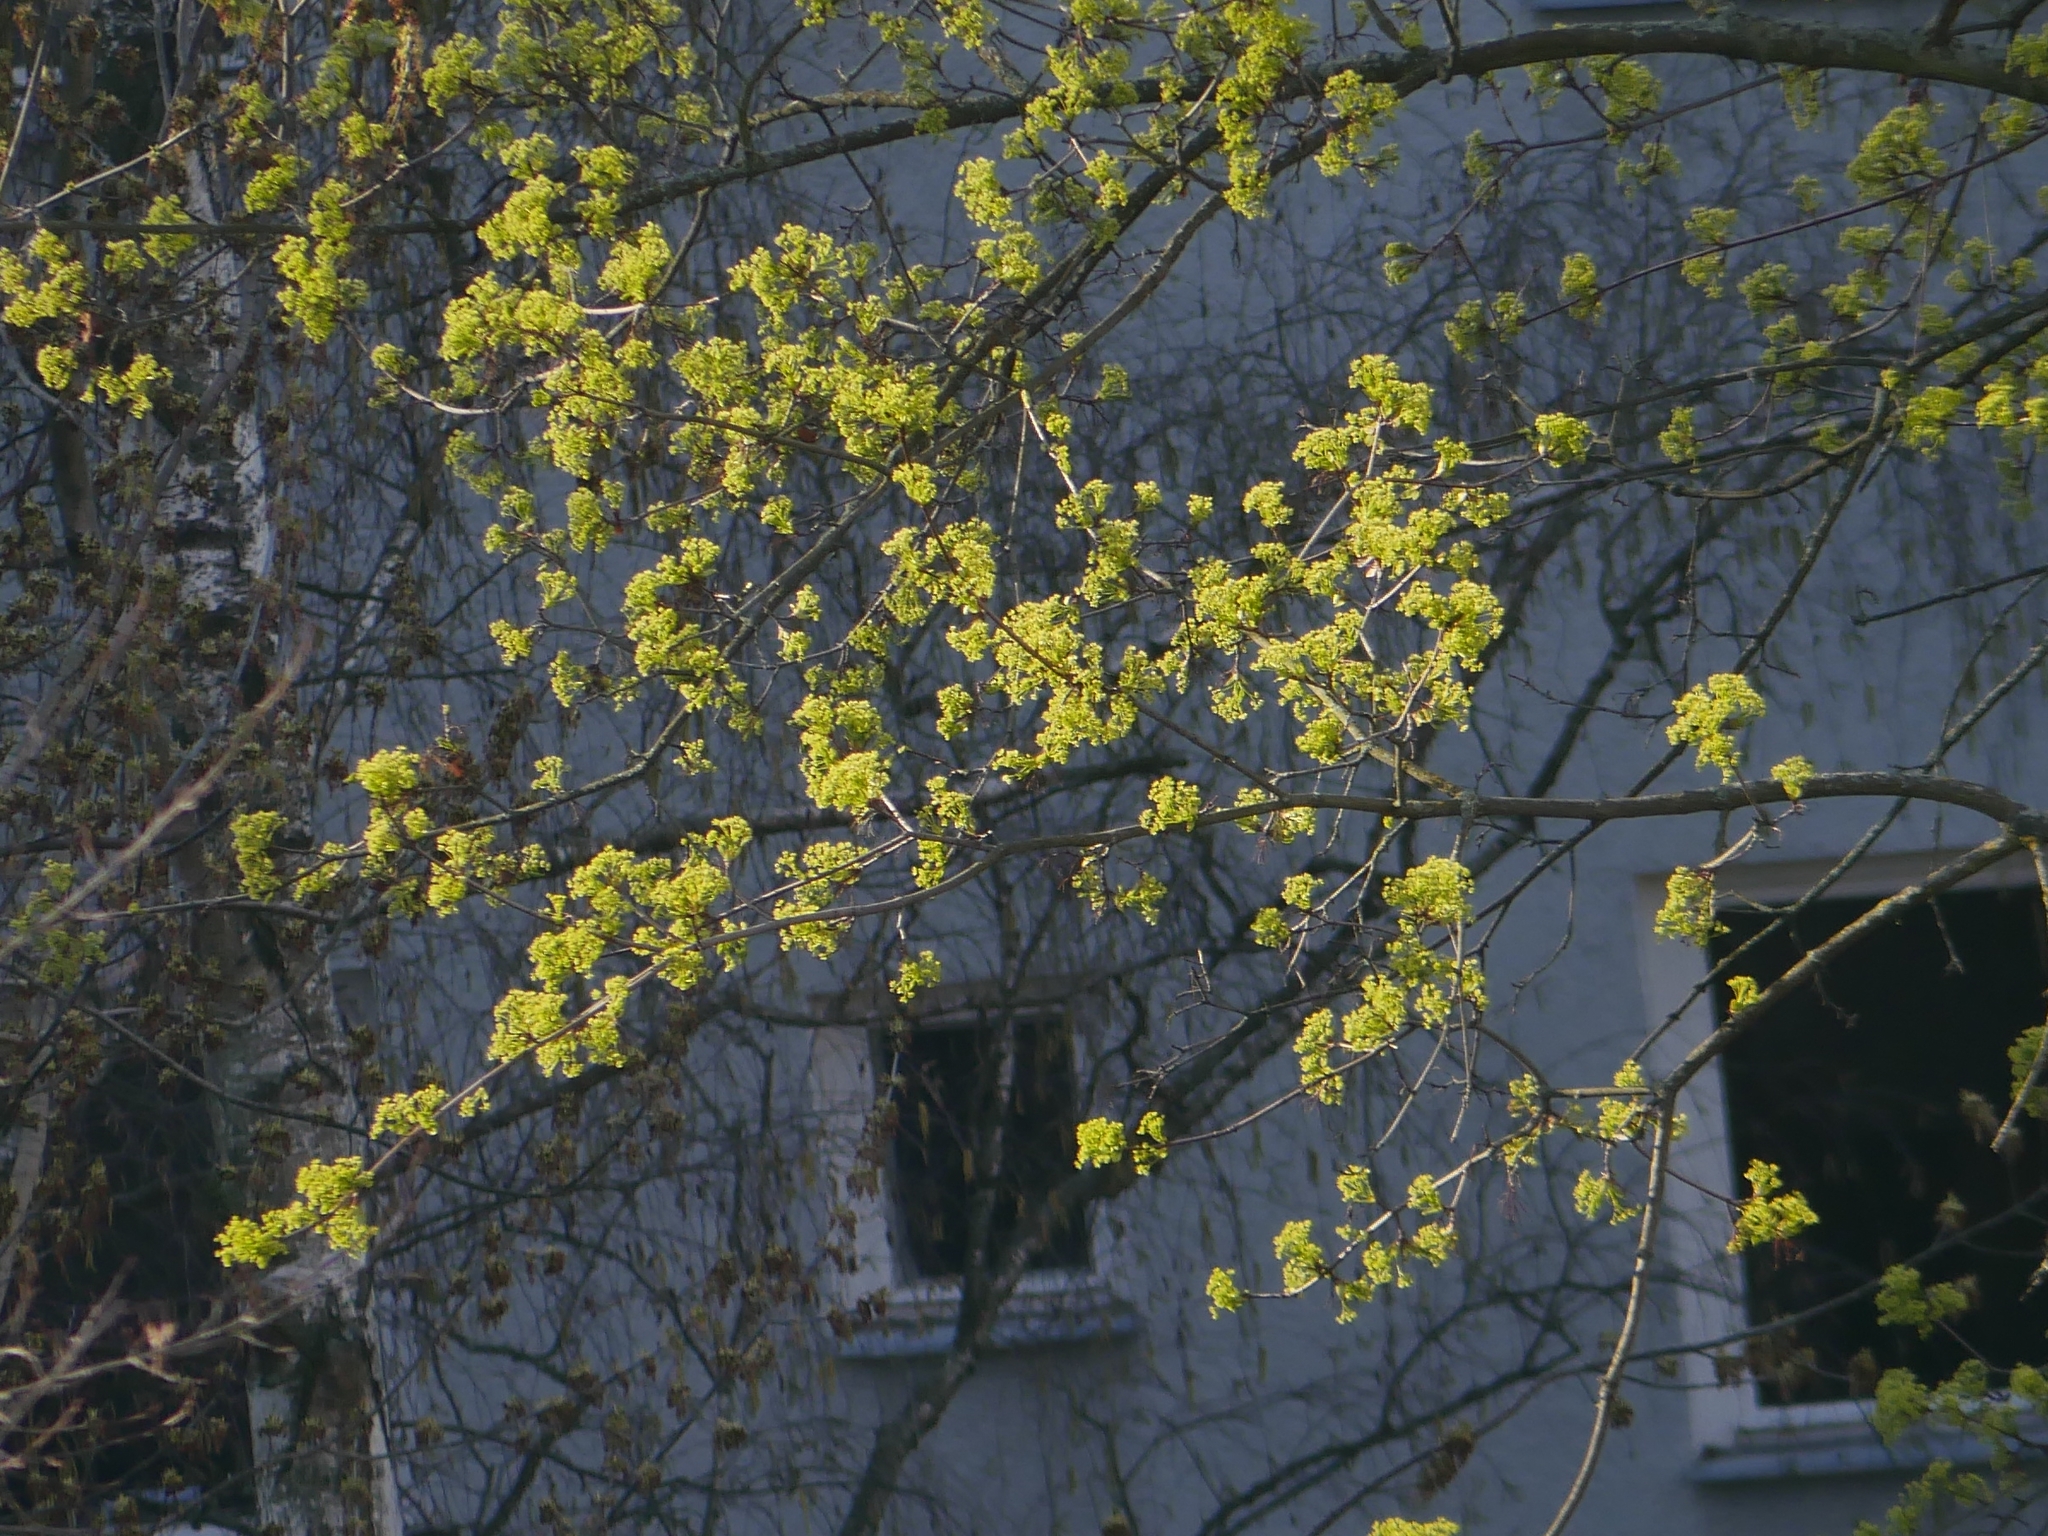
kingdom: Plantae
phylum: Tracheophyta
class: Magnoliopsida
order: Sapindales
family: Sapindaceae
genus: Acer
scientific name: Acer platanoides
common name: Norway maple
